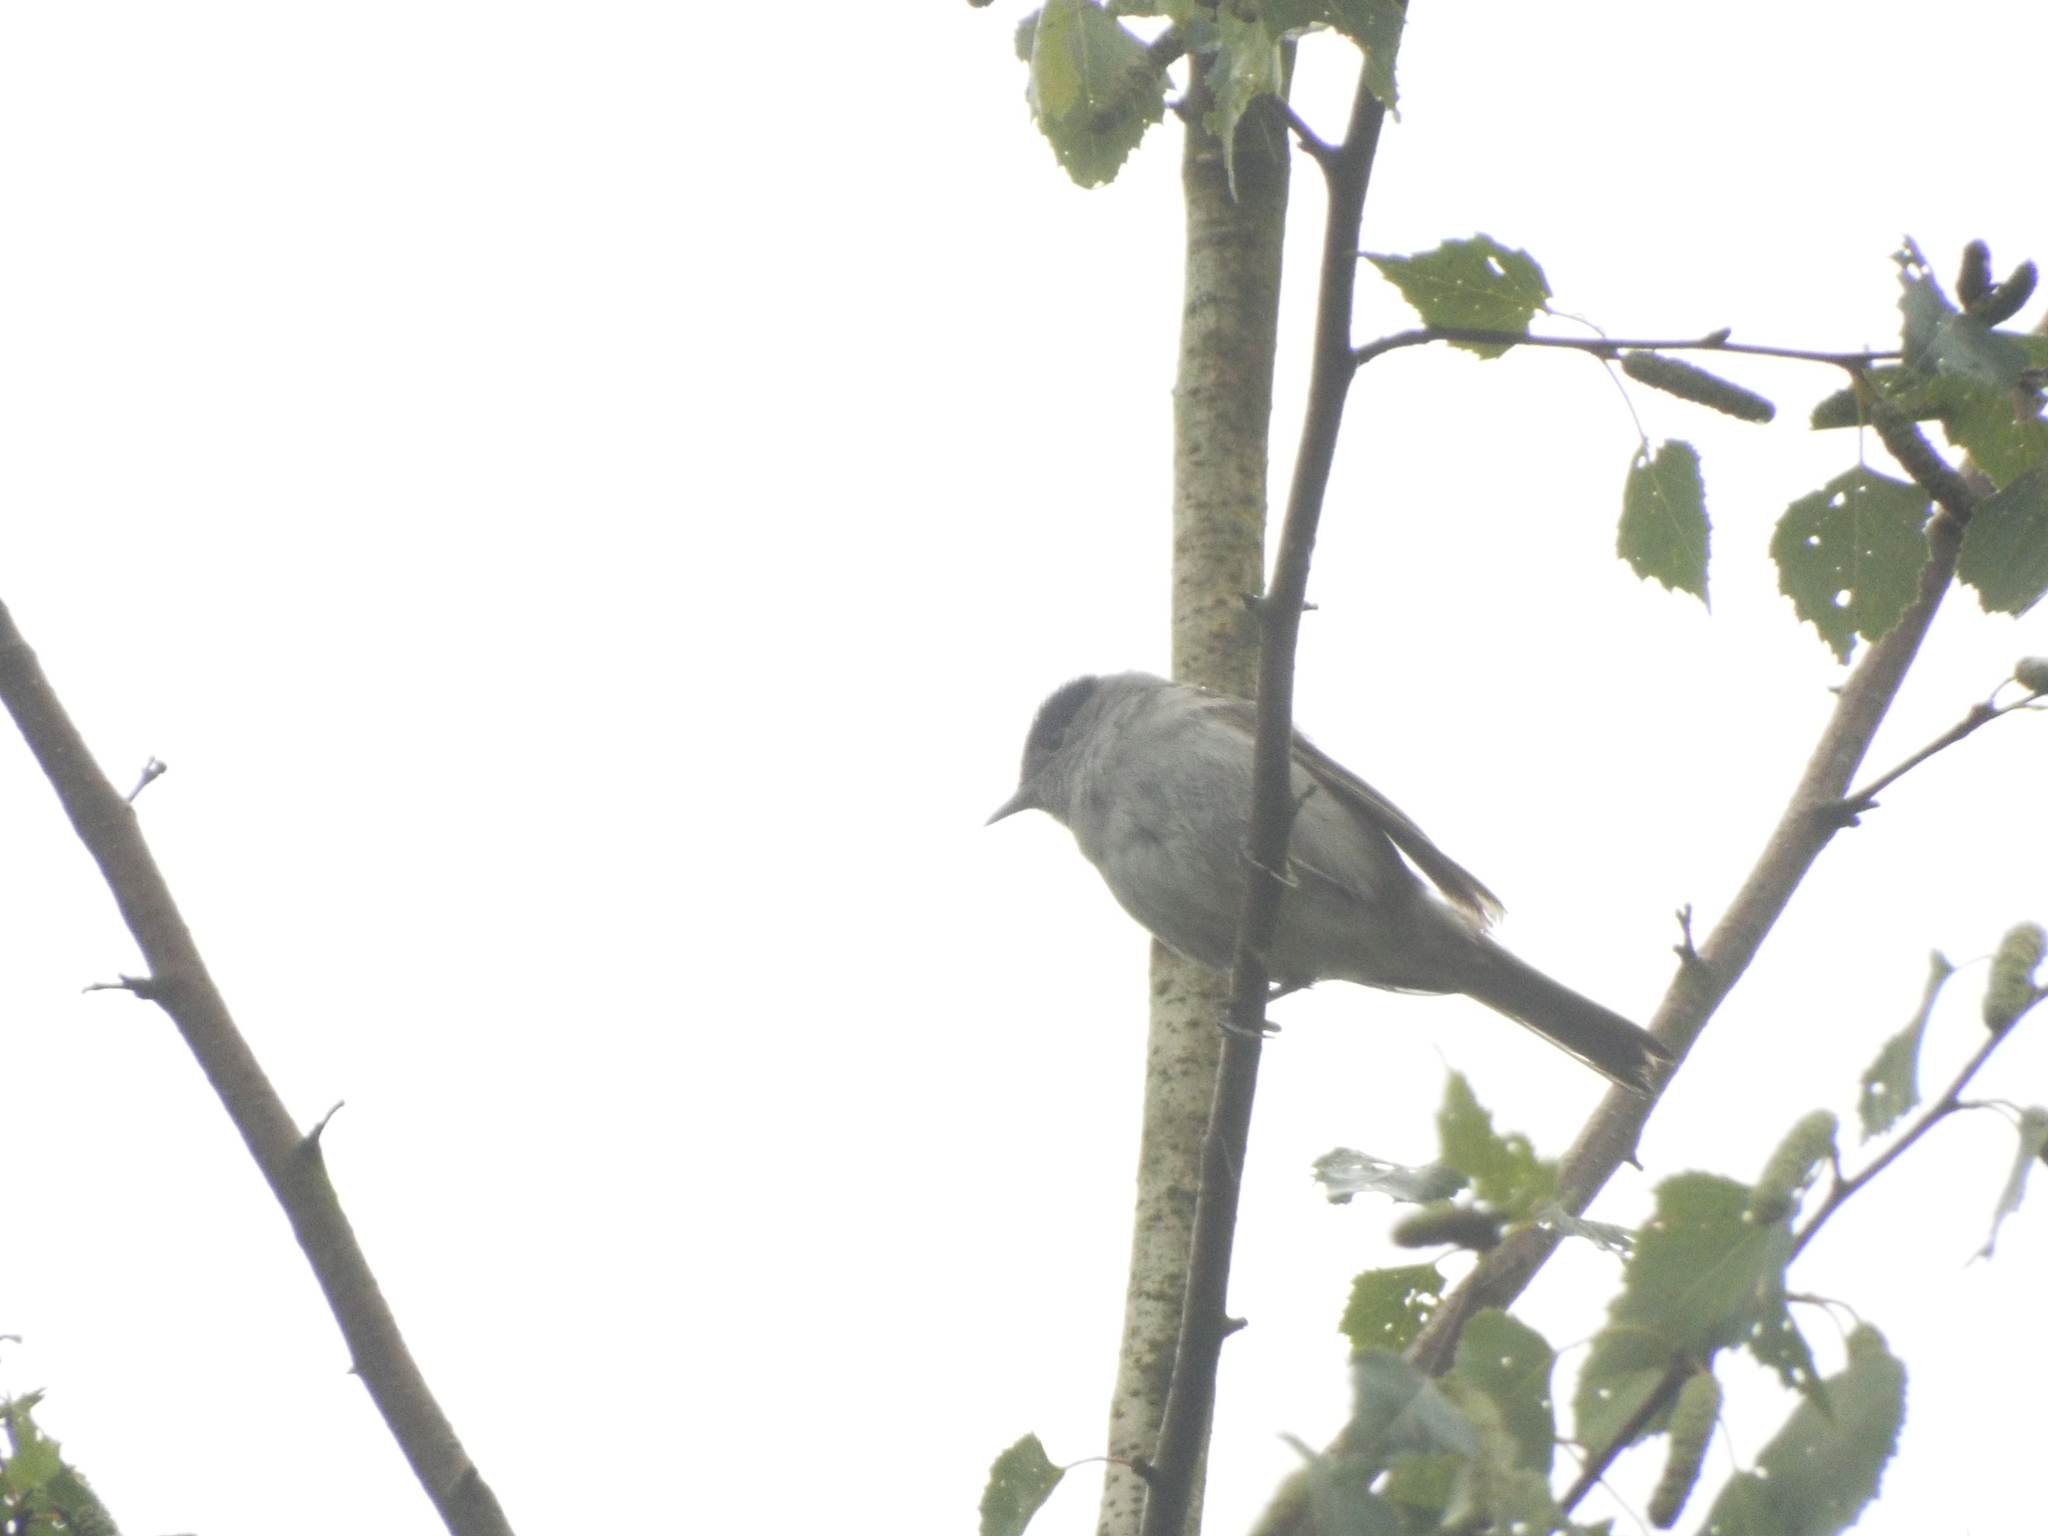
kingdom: Animalia
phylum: Chordata
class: Aves
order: Passeriformes
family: Sylviidae
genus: Sylvia
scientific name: Sylvia atricapilla
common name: Eurasian blackcap
